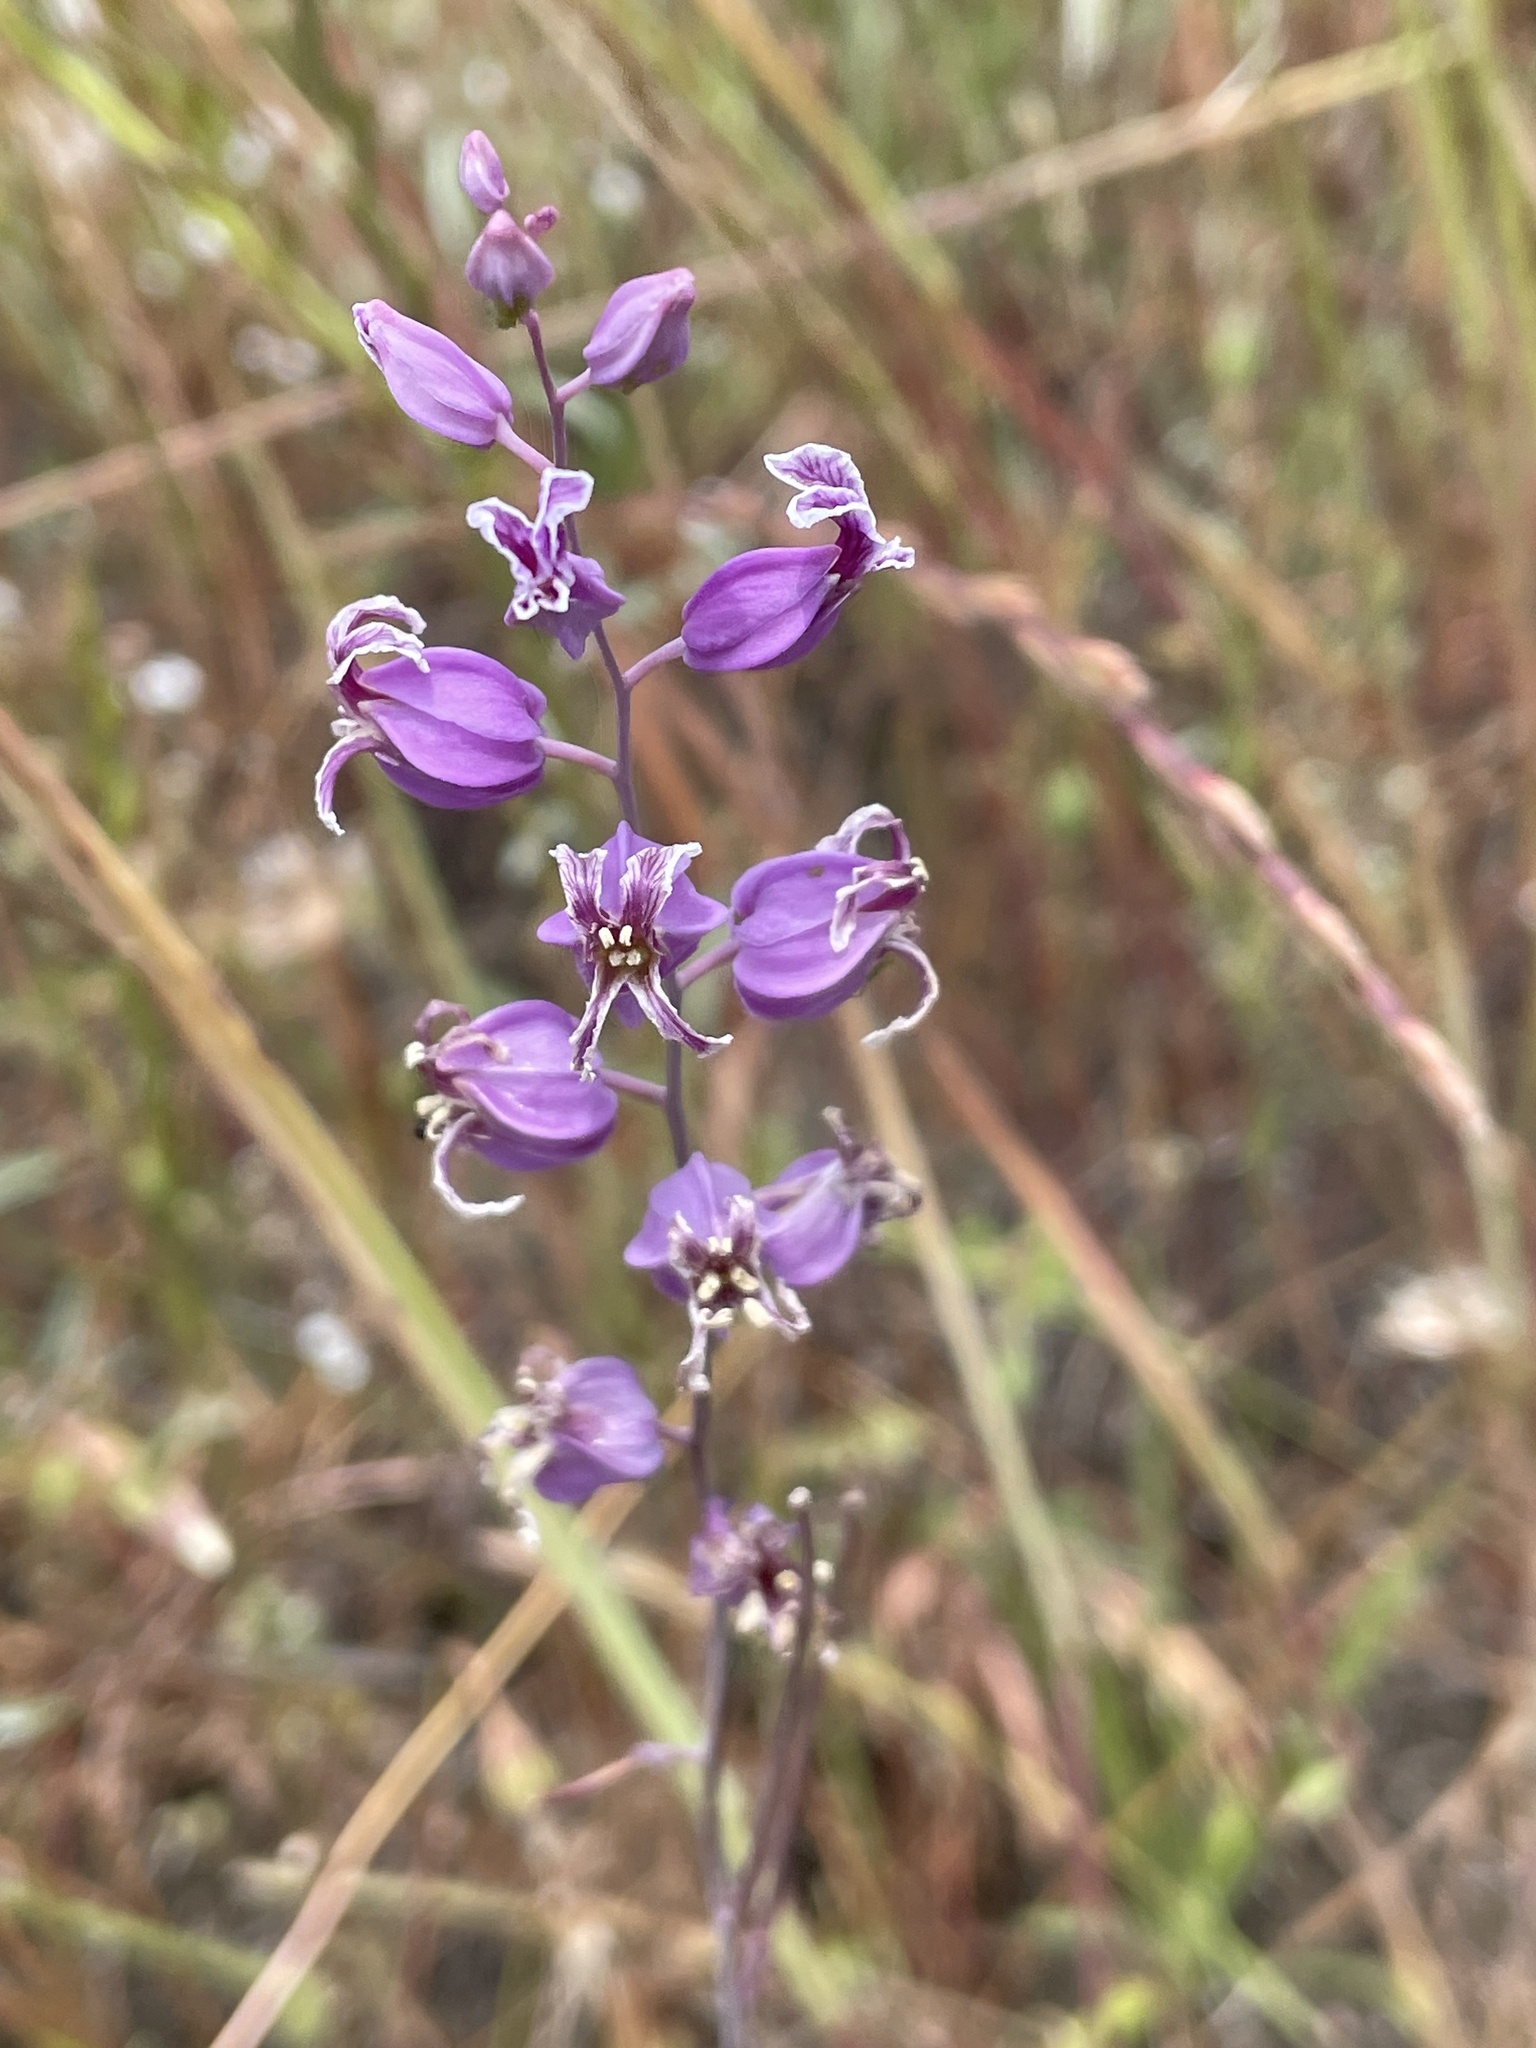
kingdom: Plantae
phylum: Tracheophyta
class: Magnoliopsida
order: Brassicales
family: Brassicaceae
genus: Streptanthus
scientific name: Streptanthus glandulosus
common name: Jewel-flower
